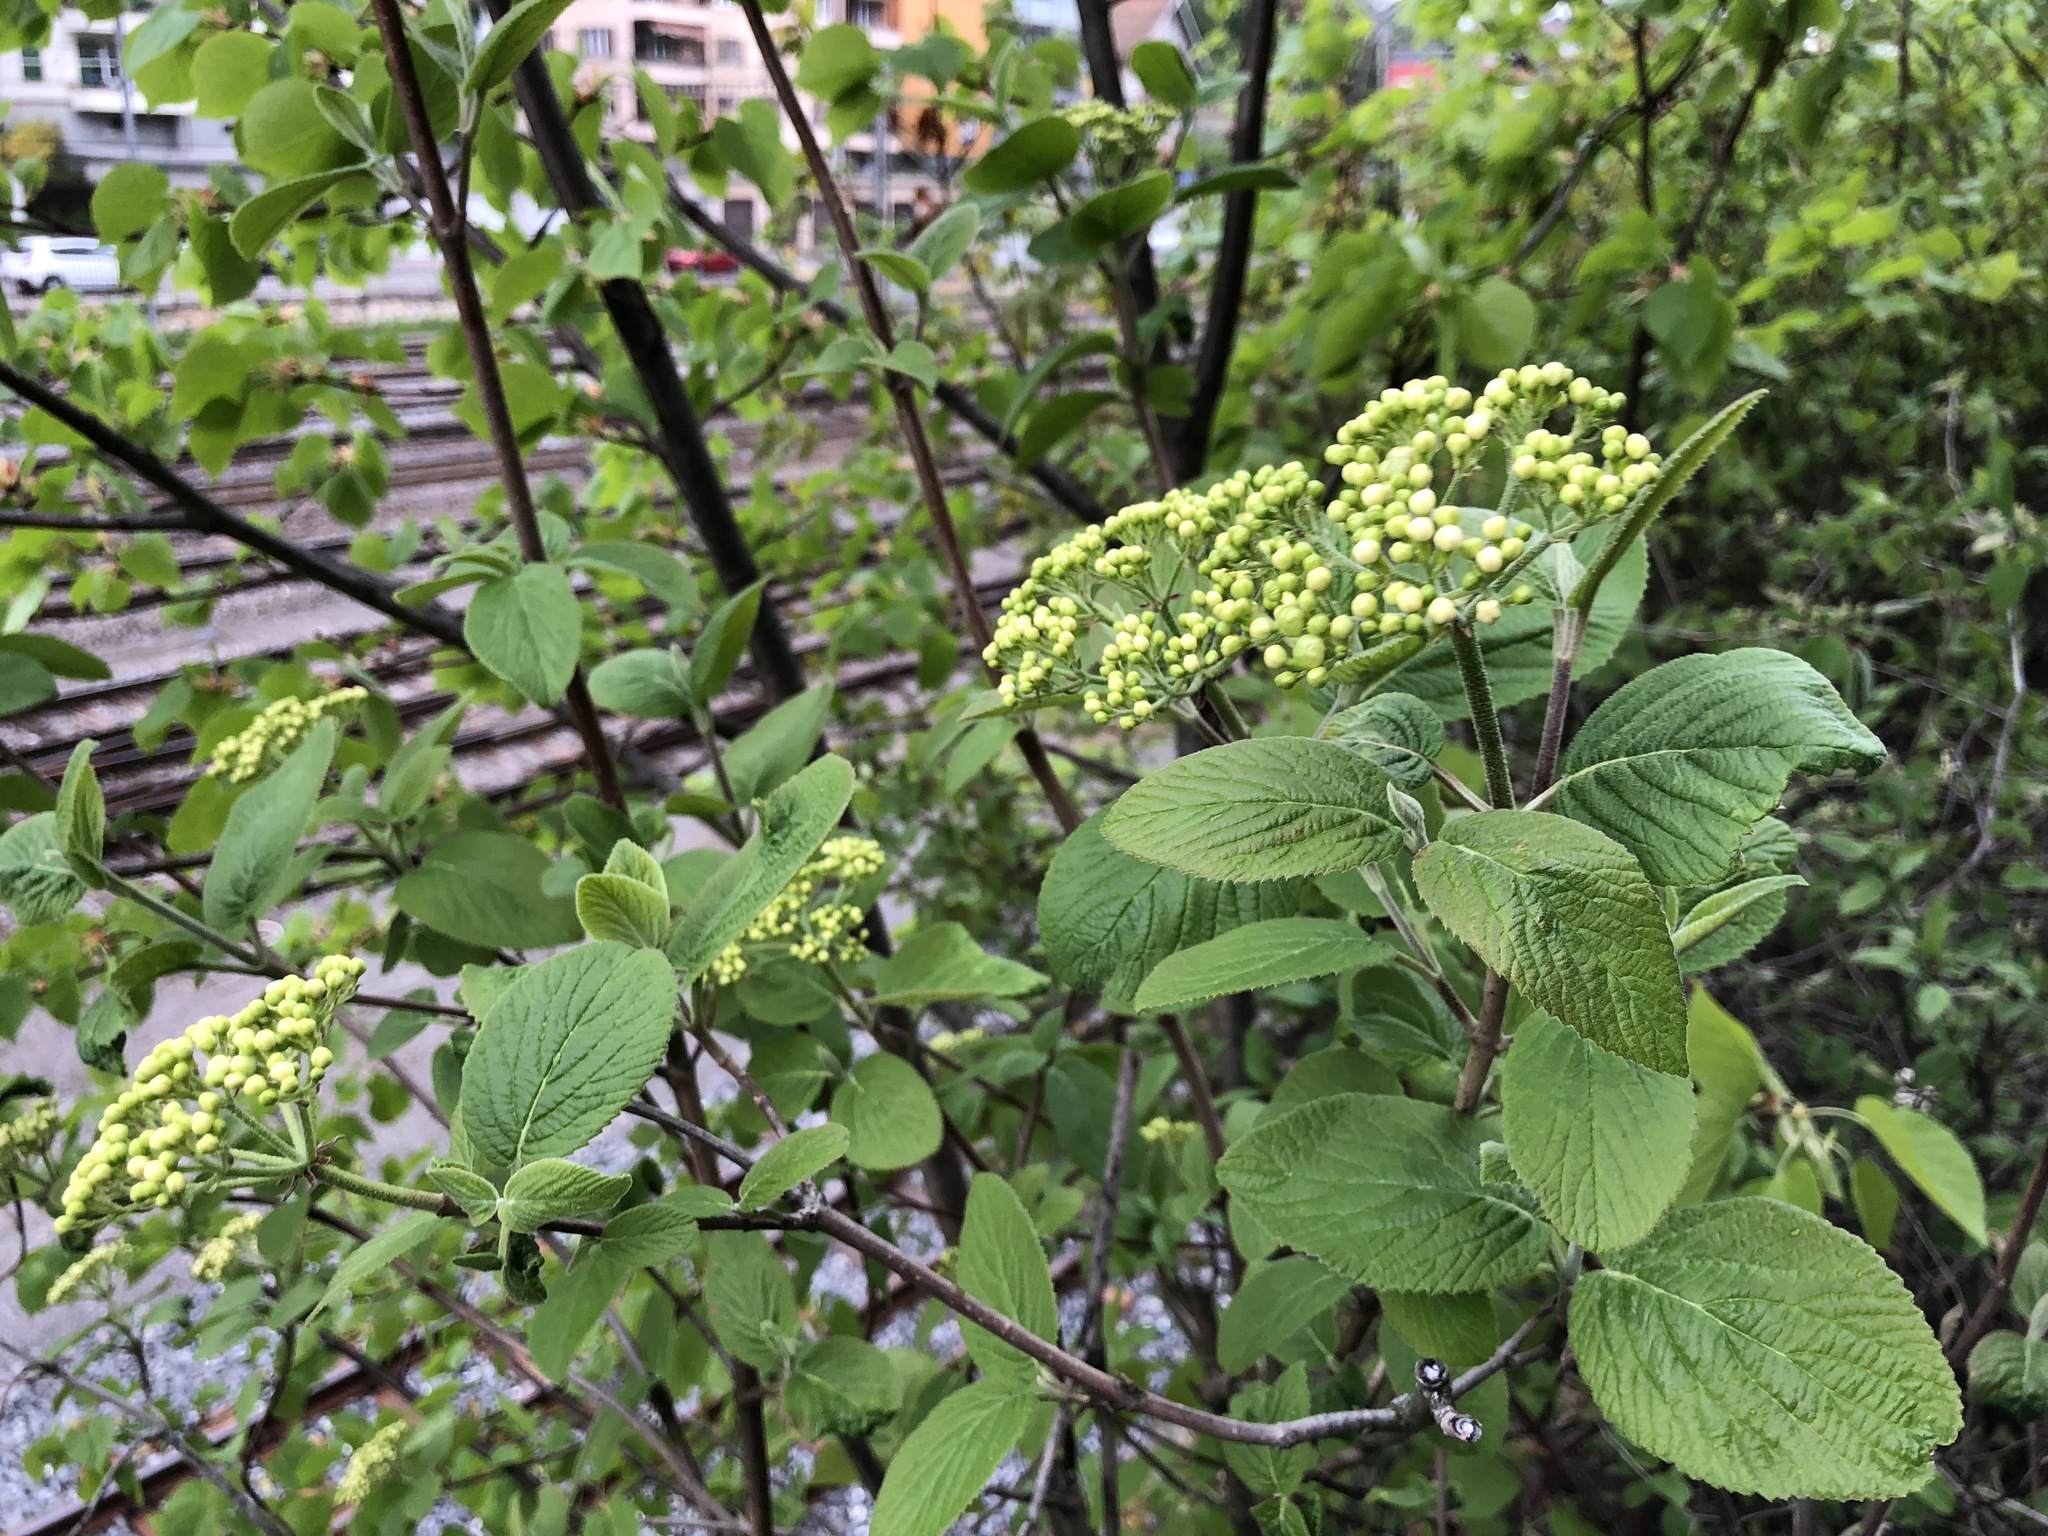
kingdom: Plantae
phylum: Tracheophyta
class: Magnoliopsida
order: Dipsacales
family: Viburnaceae
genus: Viburnum
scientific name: Viburnum lantana
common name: Wayfaring tree
